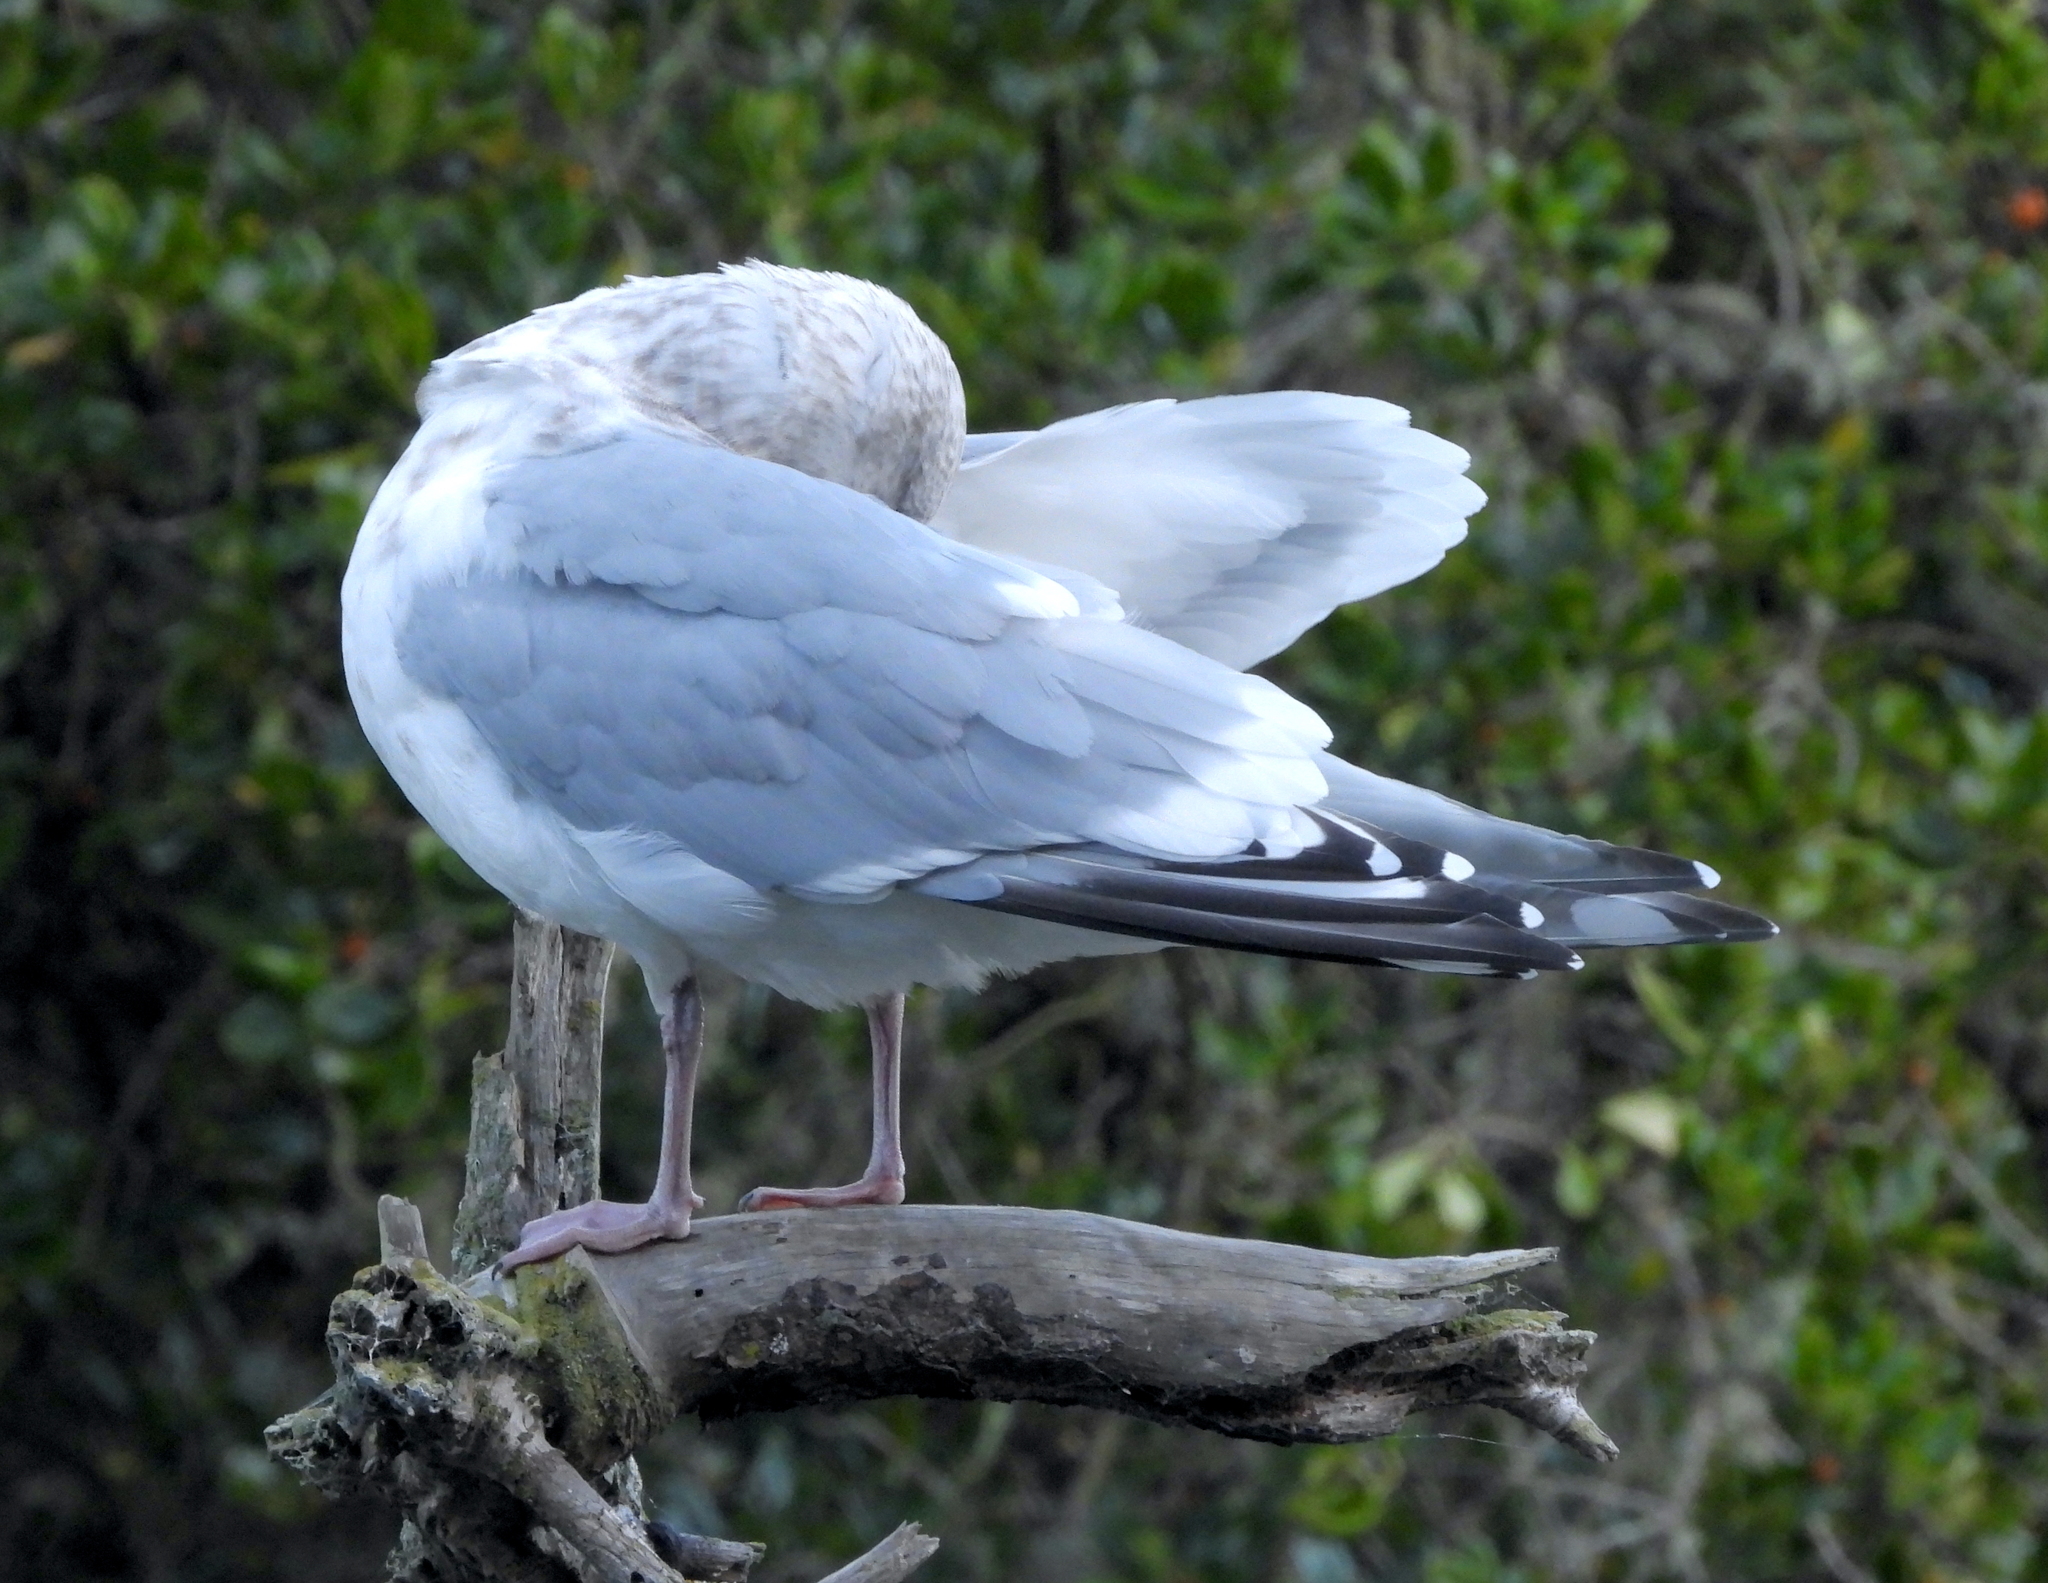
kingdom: Animalia
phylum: Chordata
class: Aves
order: Charadriiformes
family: Laridae
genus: Larus
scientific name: Larus glaucoides
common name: Iceland gull
